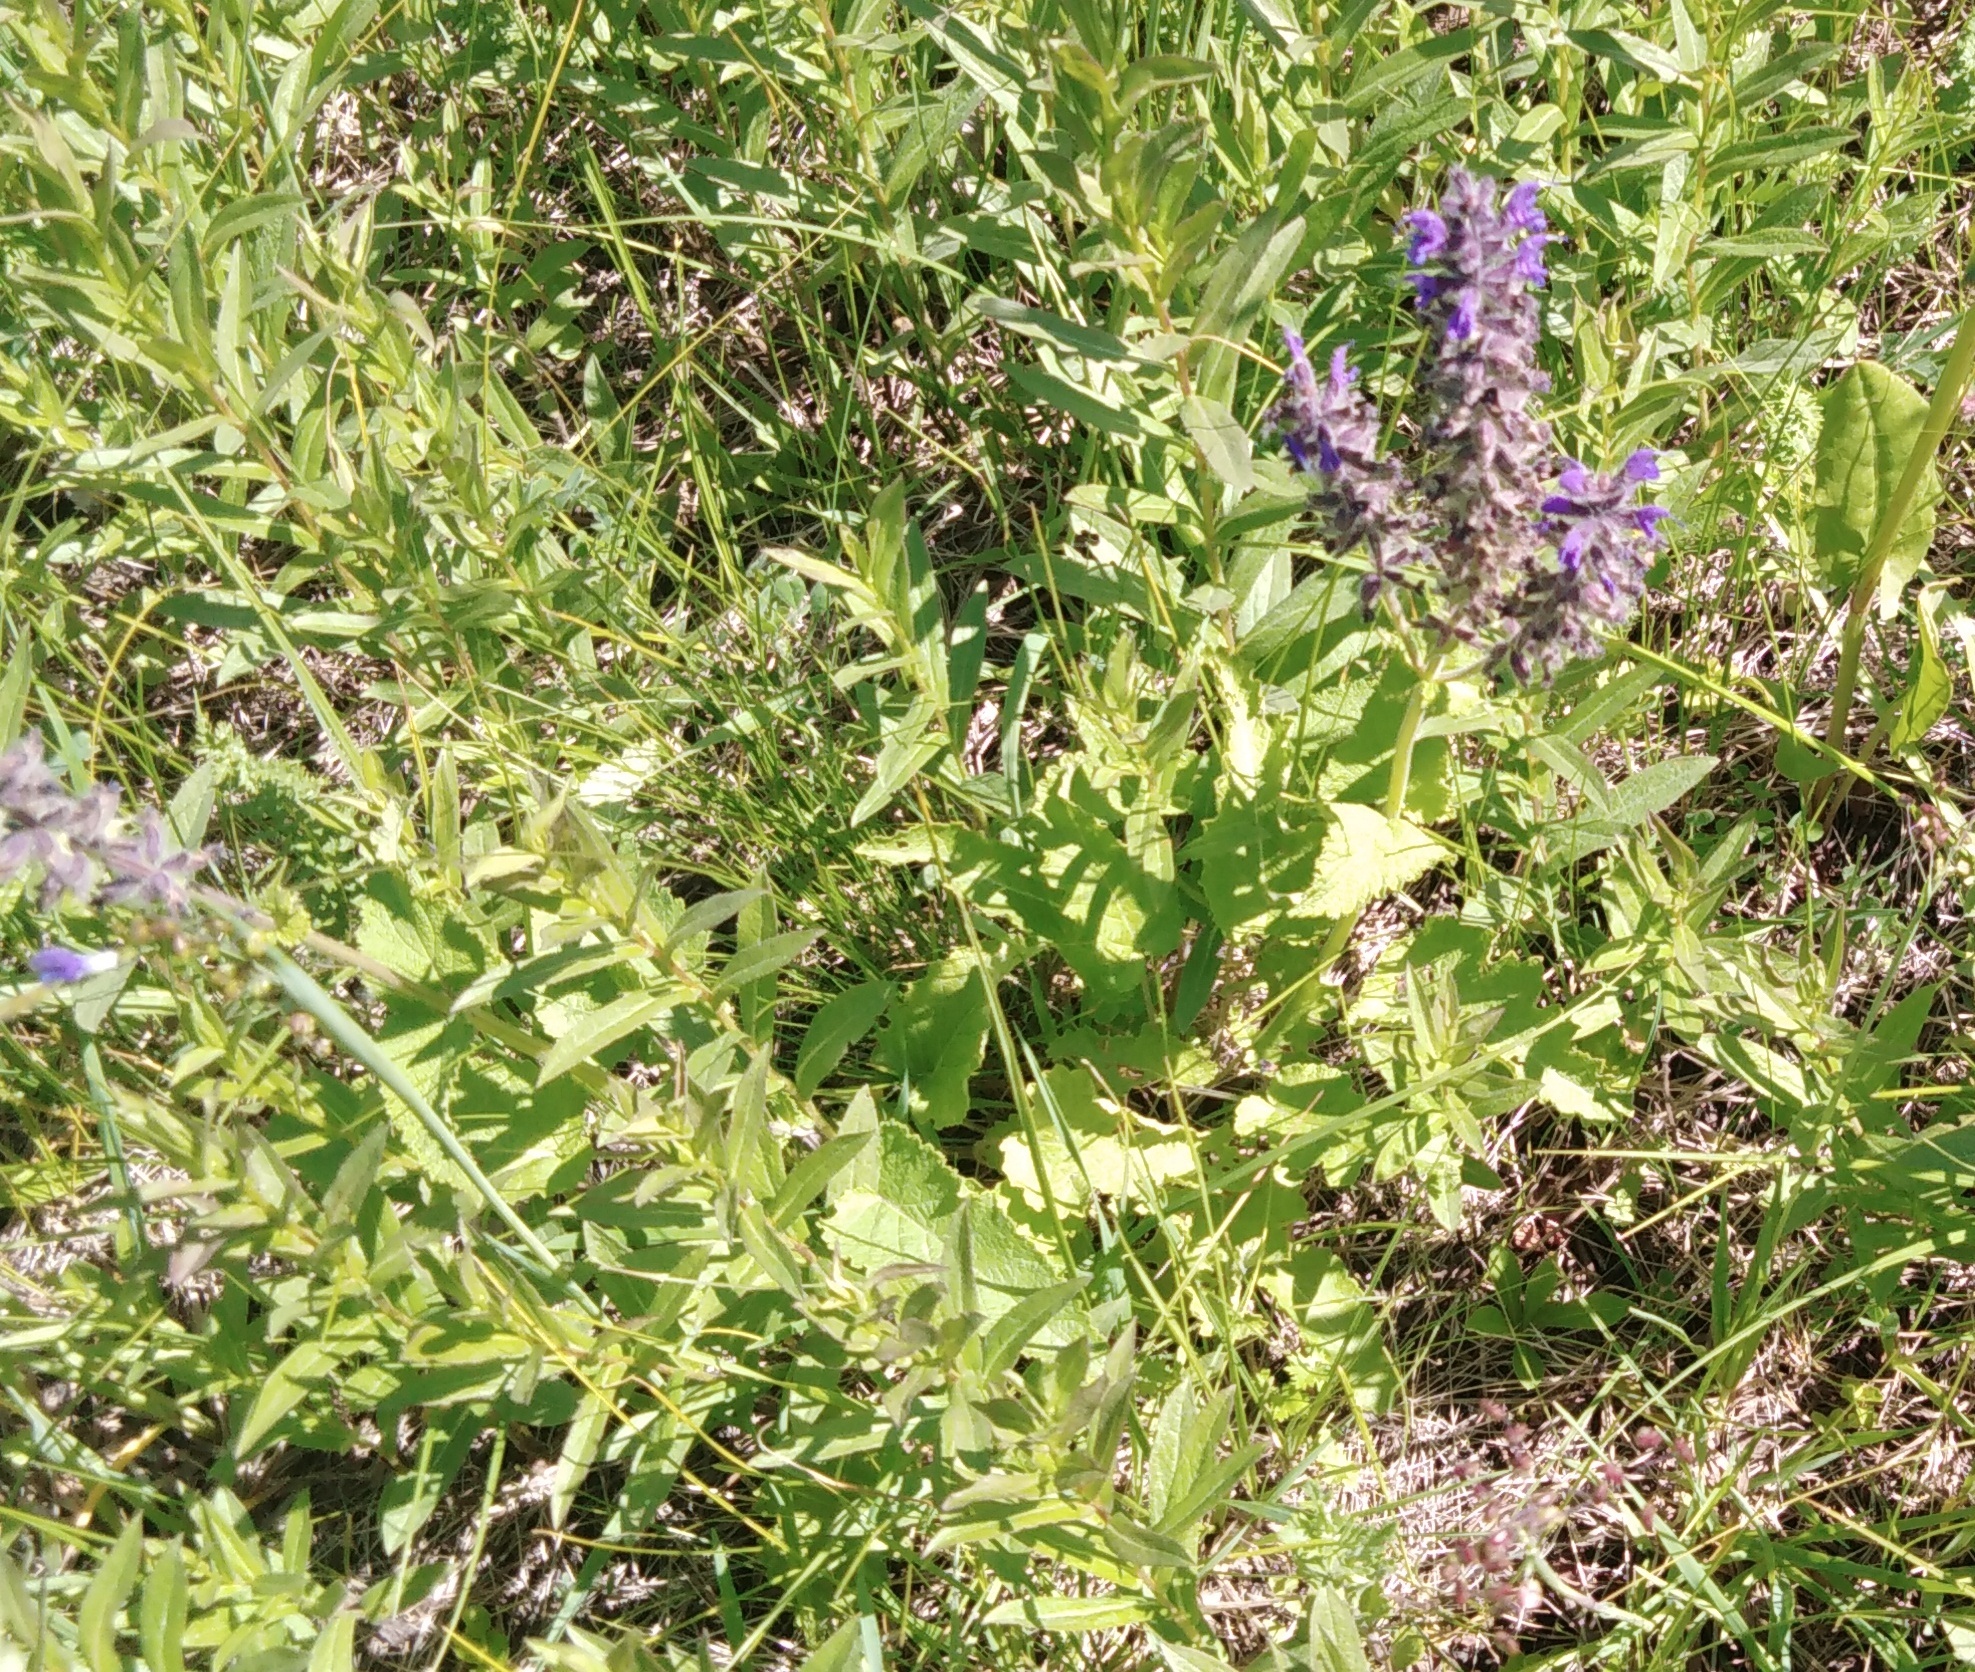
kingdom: Plantae
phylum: Tracheophyta
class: Magnoliopsida
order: Lamiales
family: Lamiaceae
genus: Salvia
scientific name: Salvia dumetorum
